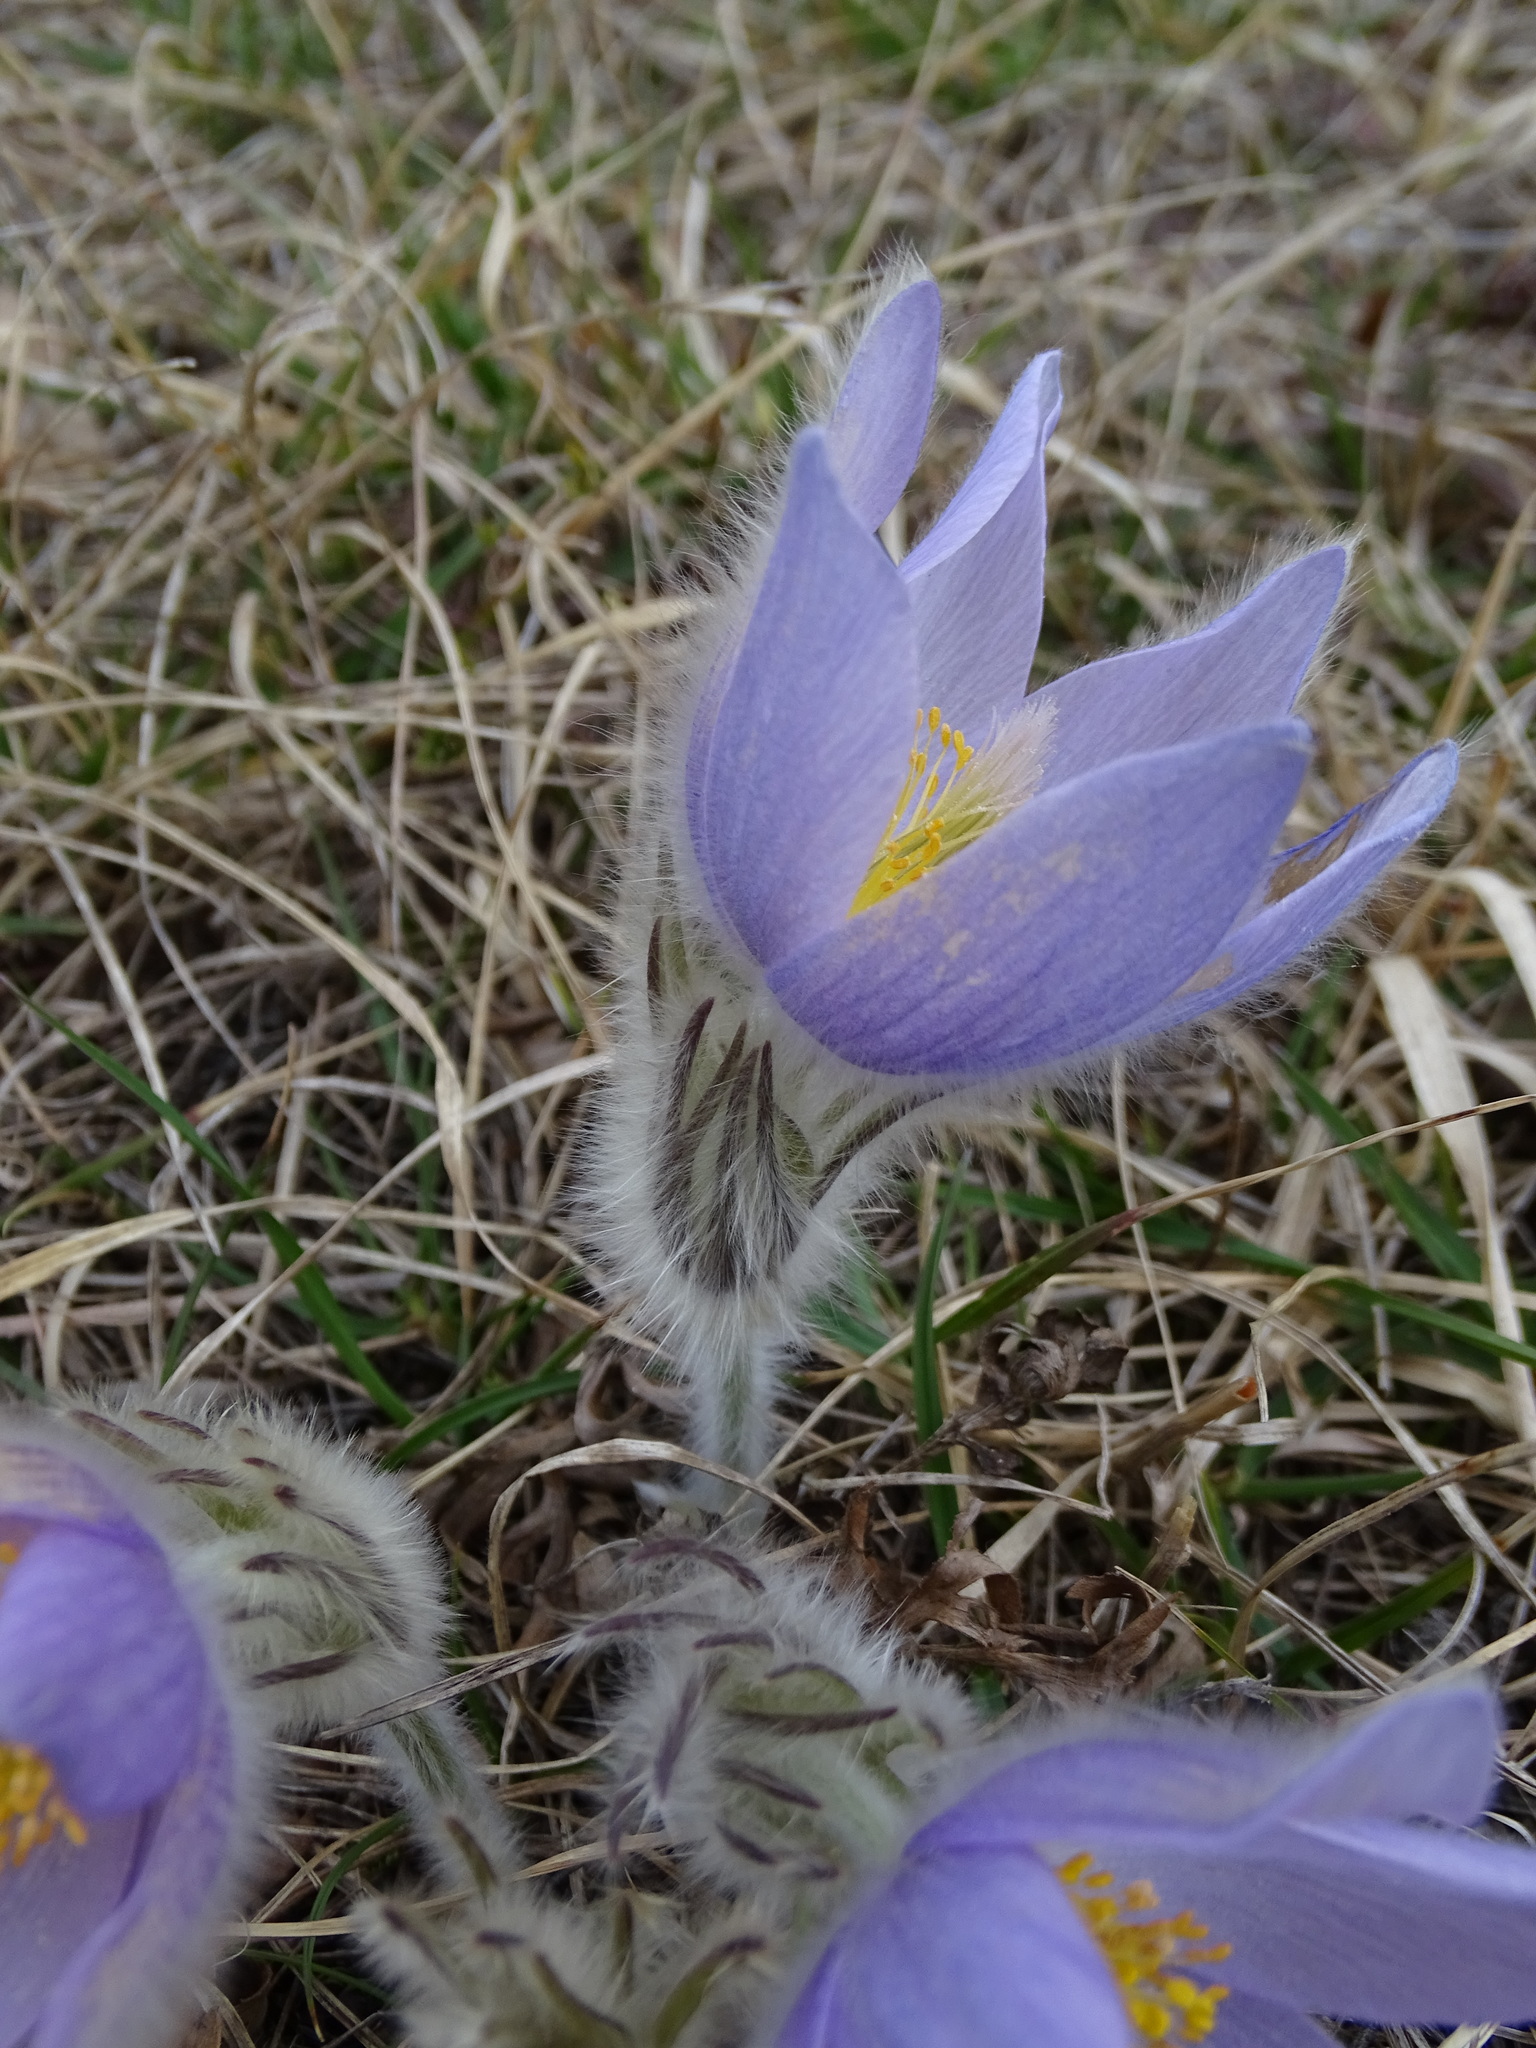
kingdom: Plantae
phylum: Tracheophyta
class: Magnoliopsida
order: Ranunculales
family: Ranunculaceae
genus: Pulsatilla
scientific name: Pulsatilla grandis
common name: Greater pasque flower
